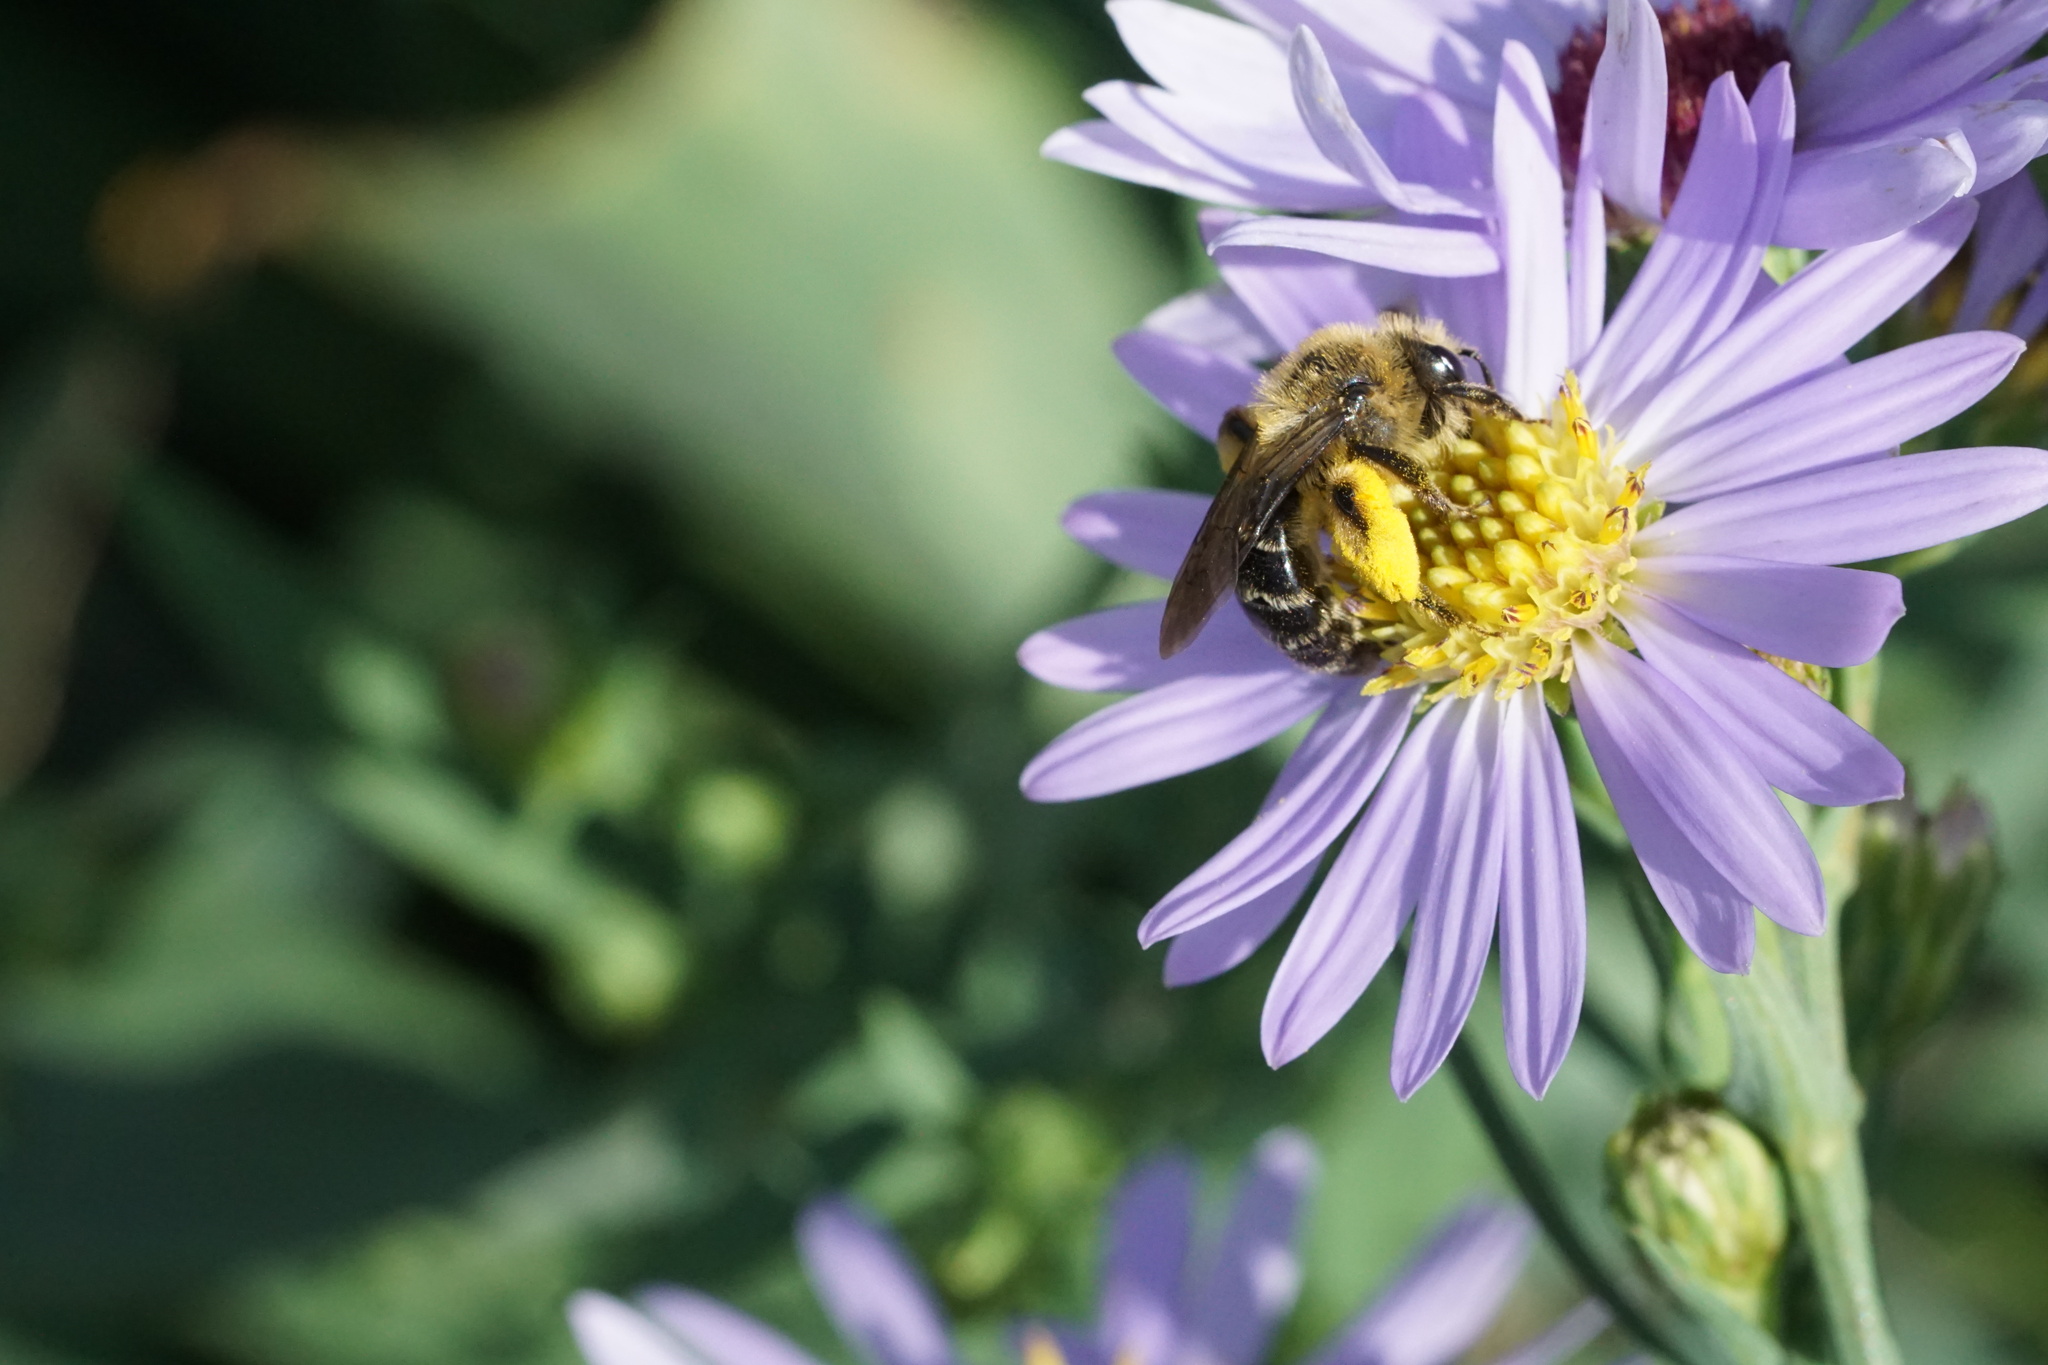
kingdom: Animalia
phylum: Arthropoda
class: Insecta
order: Hymenoptera
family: Andrenidae
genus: Andrena
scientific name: Andrena asteris
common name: Aster mining bee
